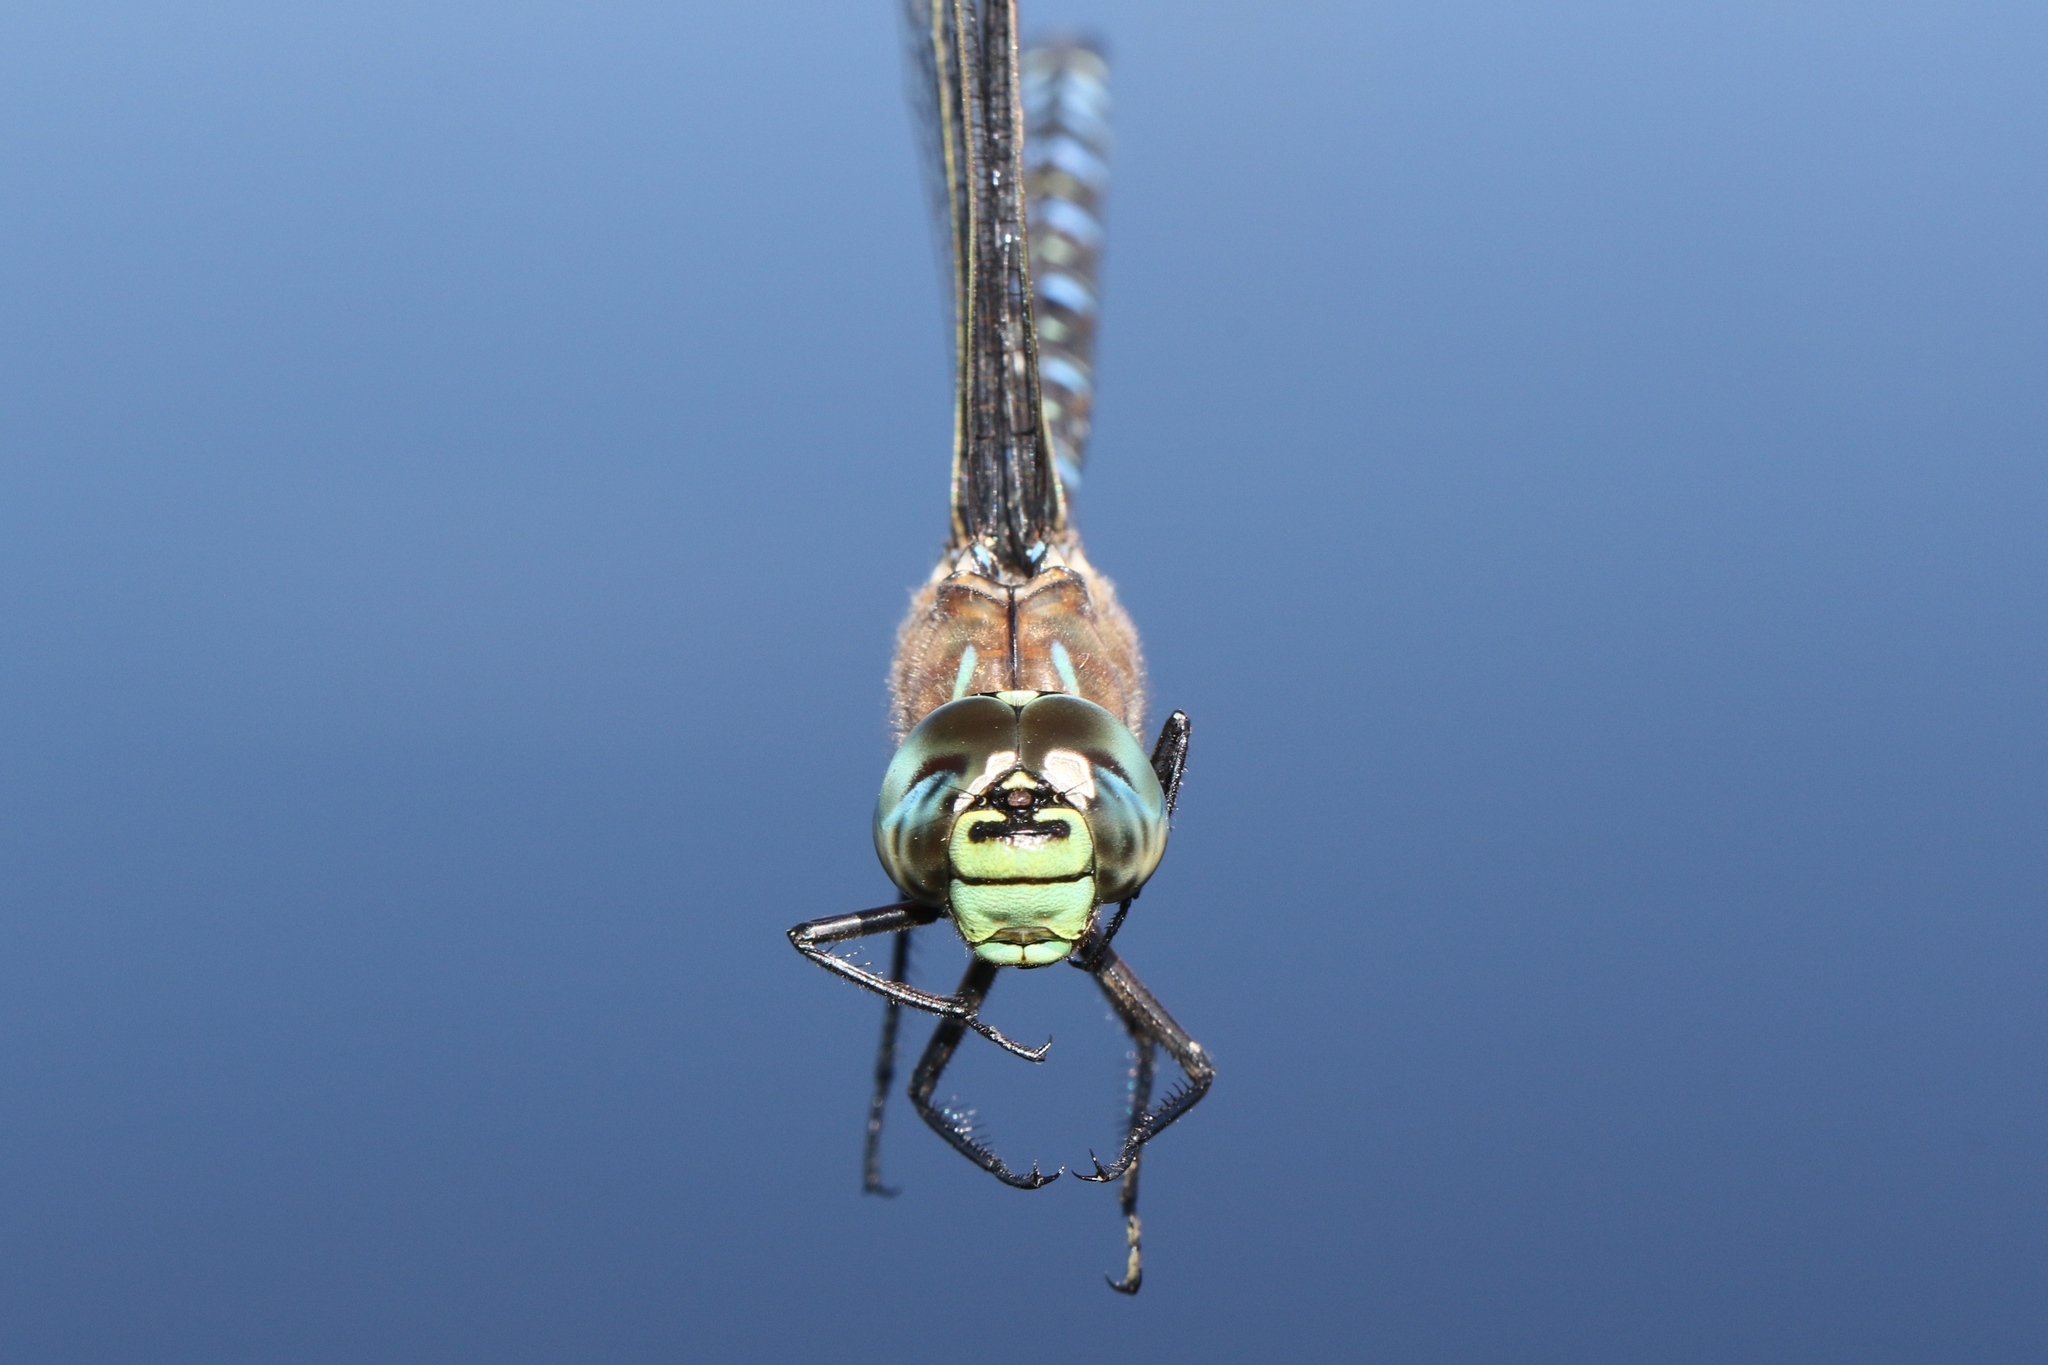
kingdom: Animalia
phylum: Arthropoda
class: Insecta
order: Odonata
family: Aeshnidae
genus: Aeshna
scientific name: Aeshna interrupta
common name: Variable darner
